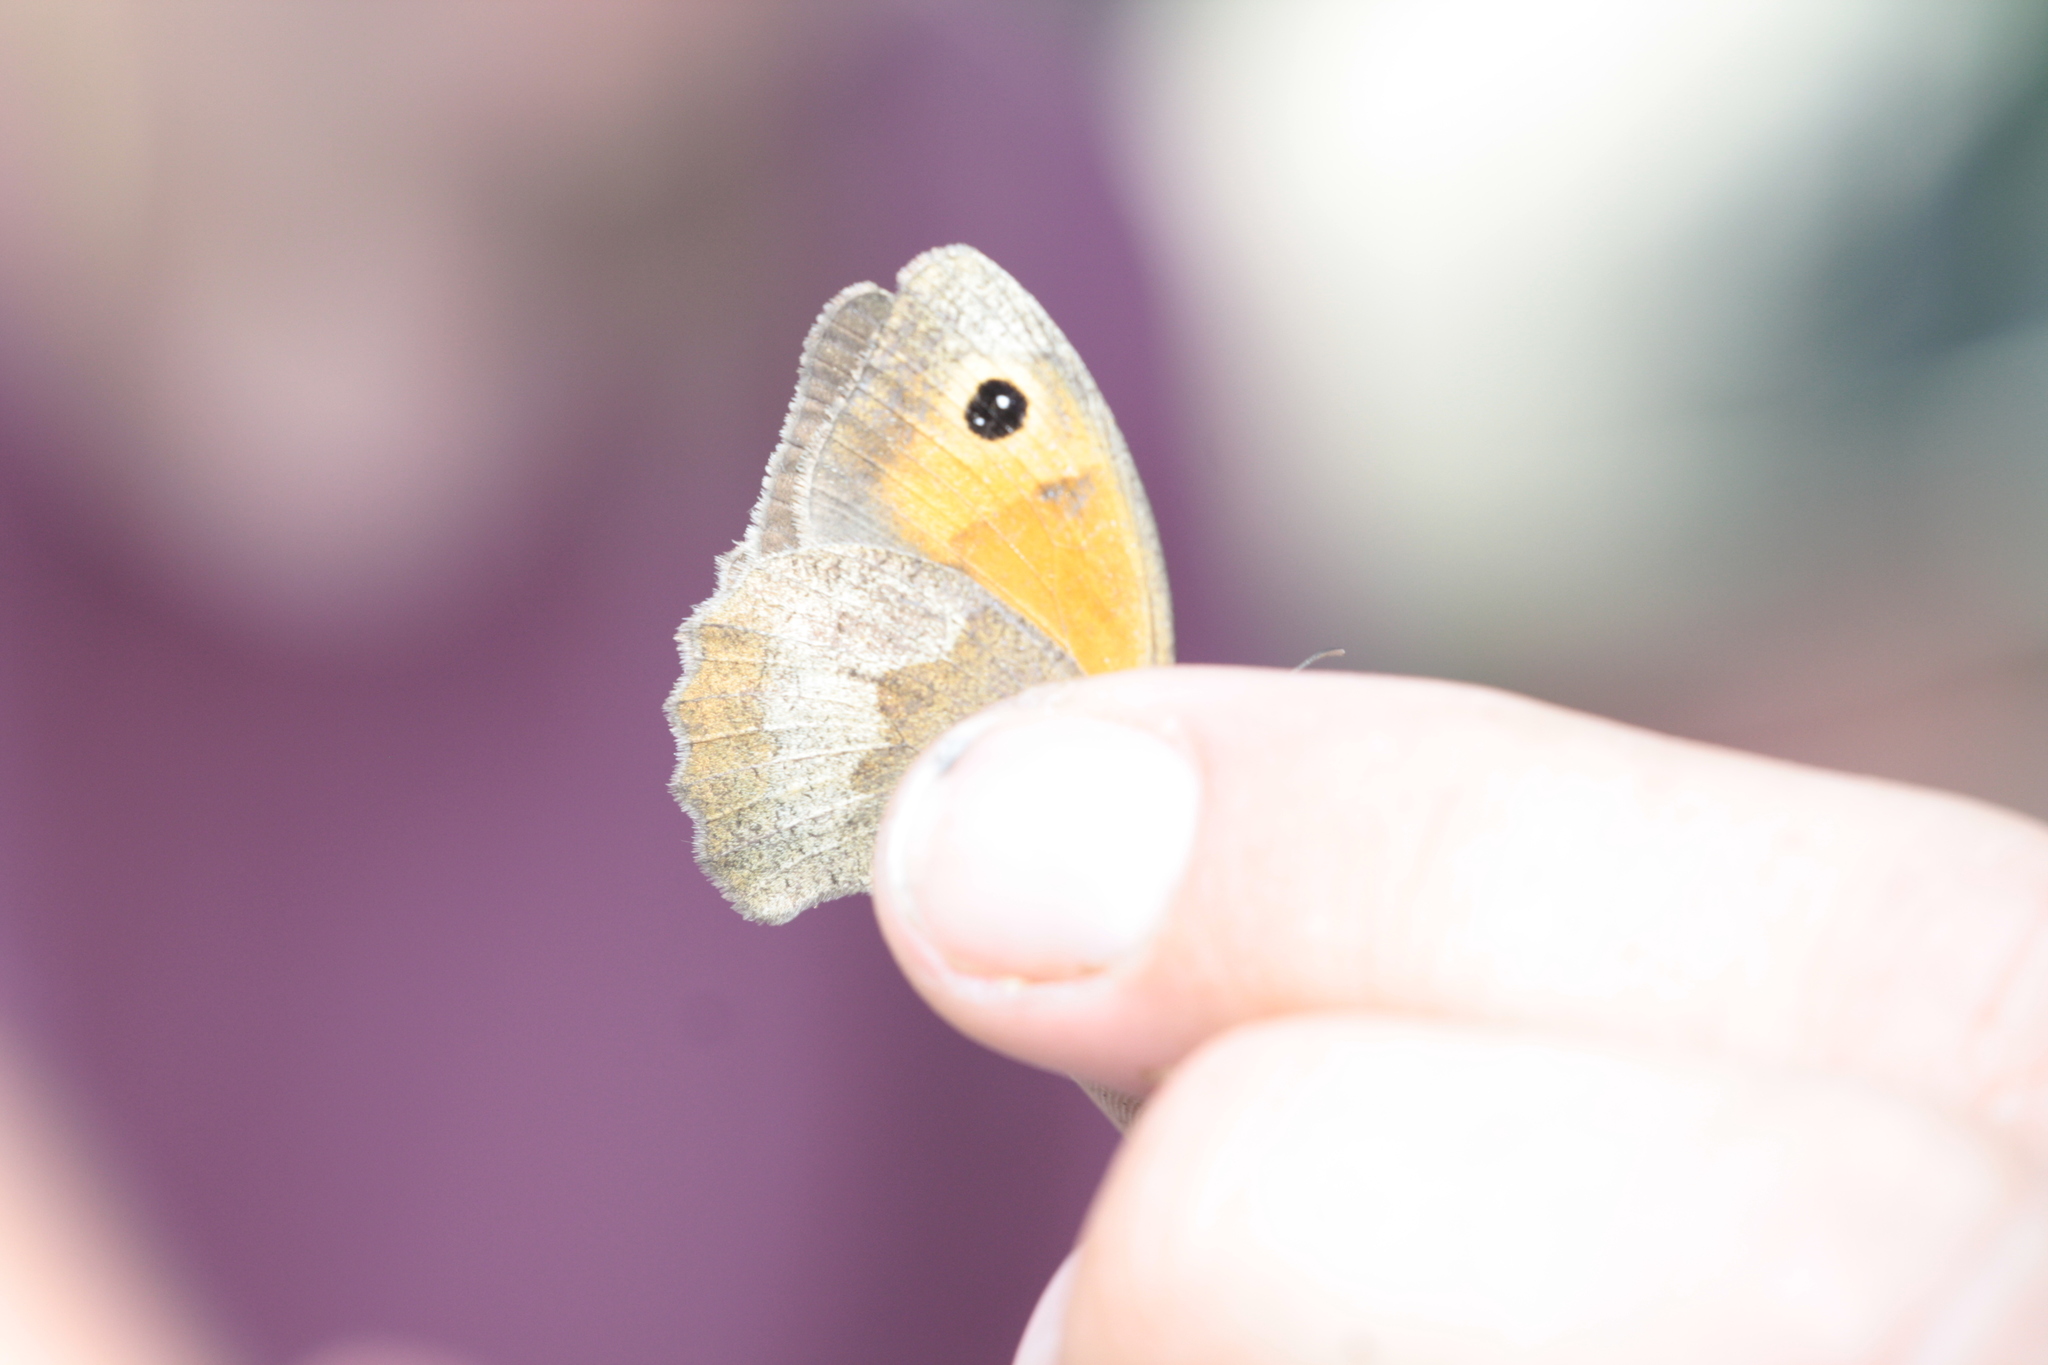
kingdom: Animalia
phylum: Arthropoda
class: Insecta
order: Lepidoptera
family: Nymphalidae
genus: Coenonympha
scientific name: Coenonympha pamphilus
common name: Small heath
